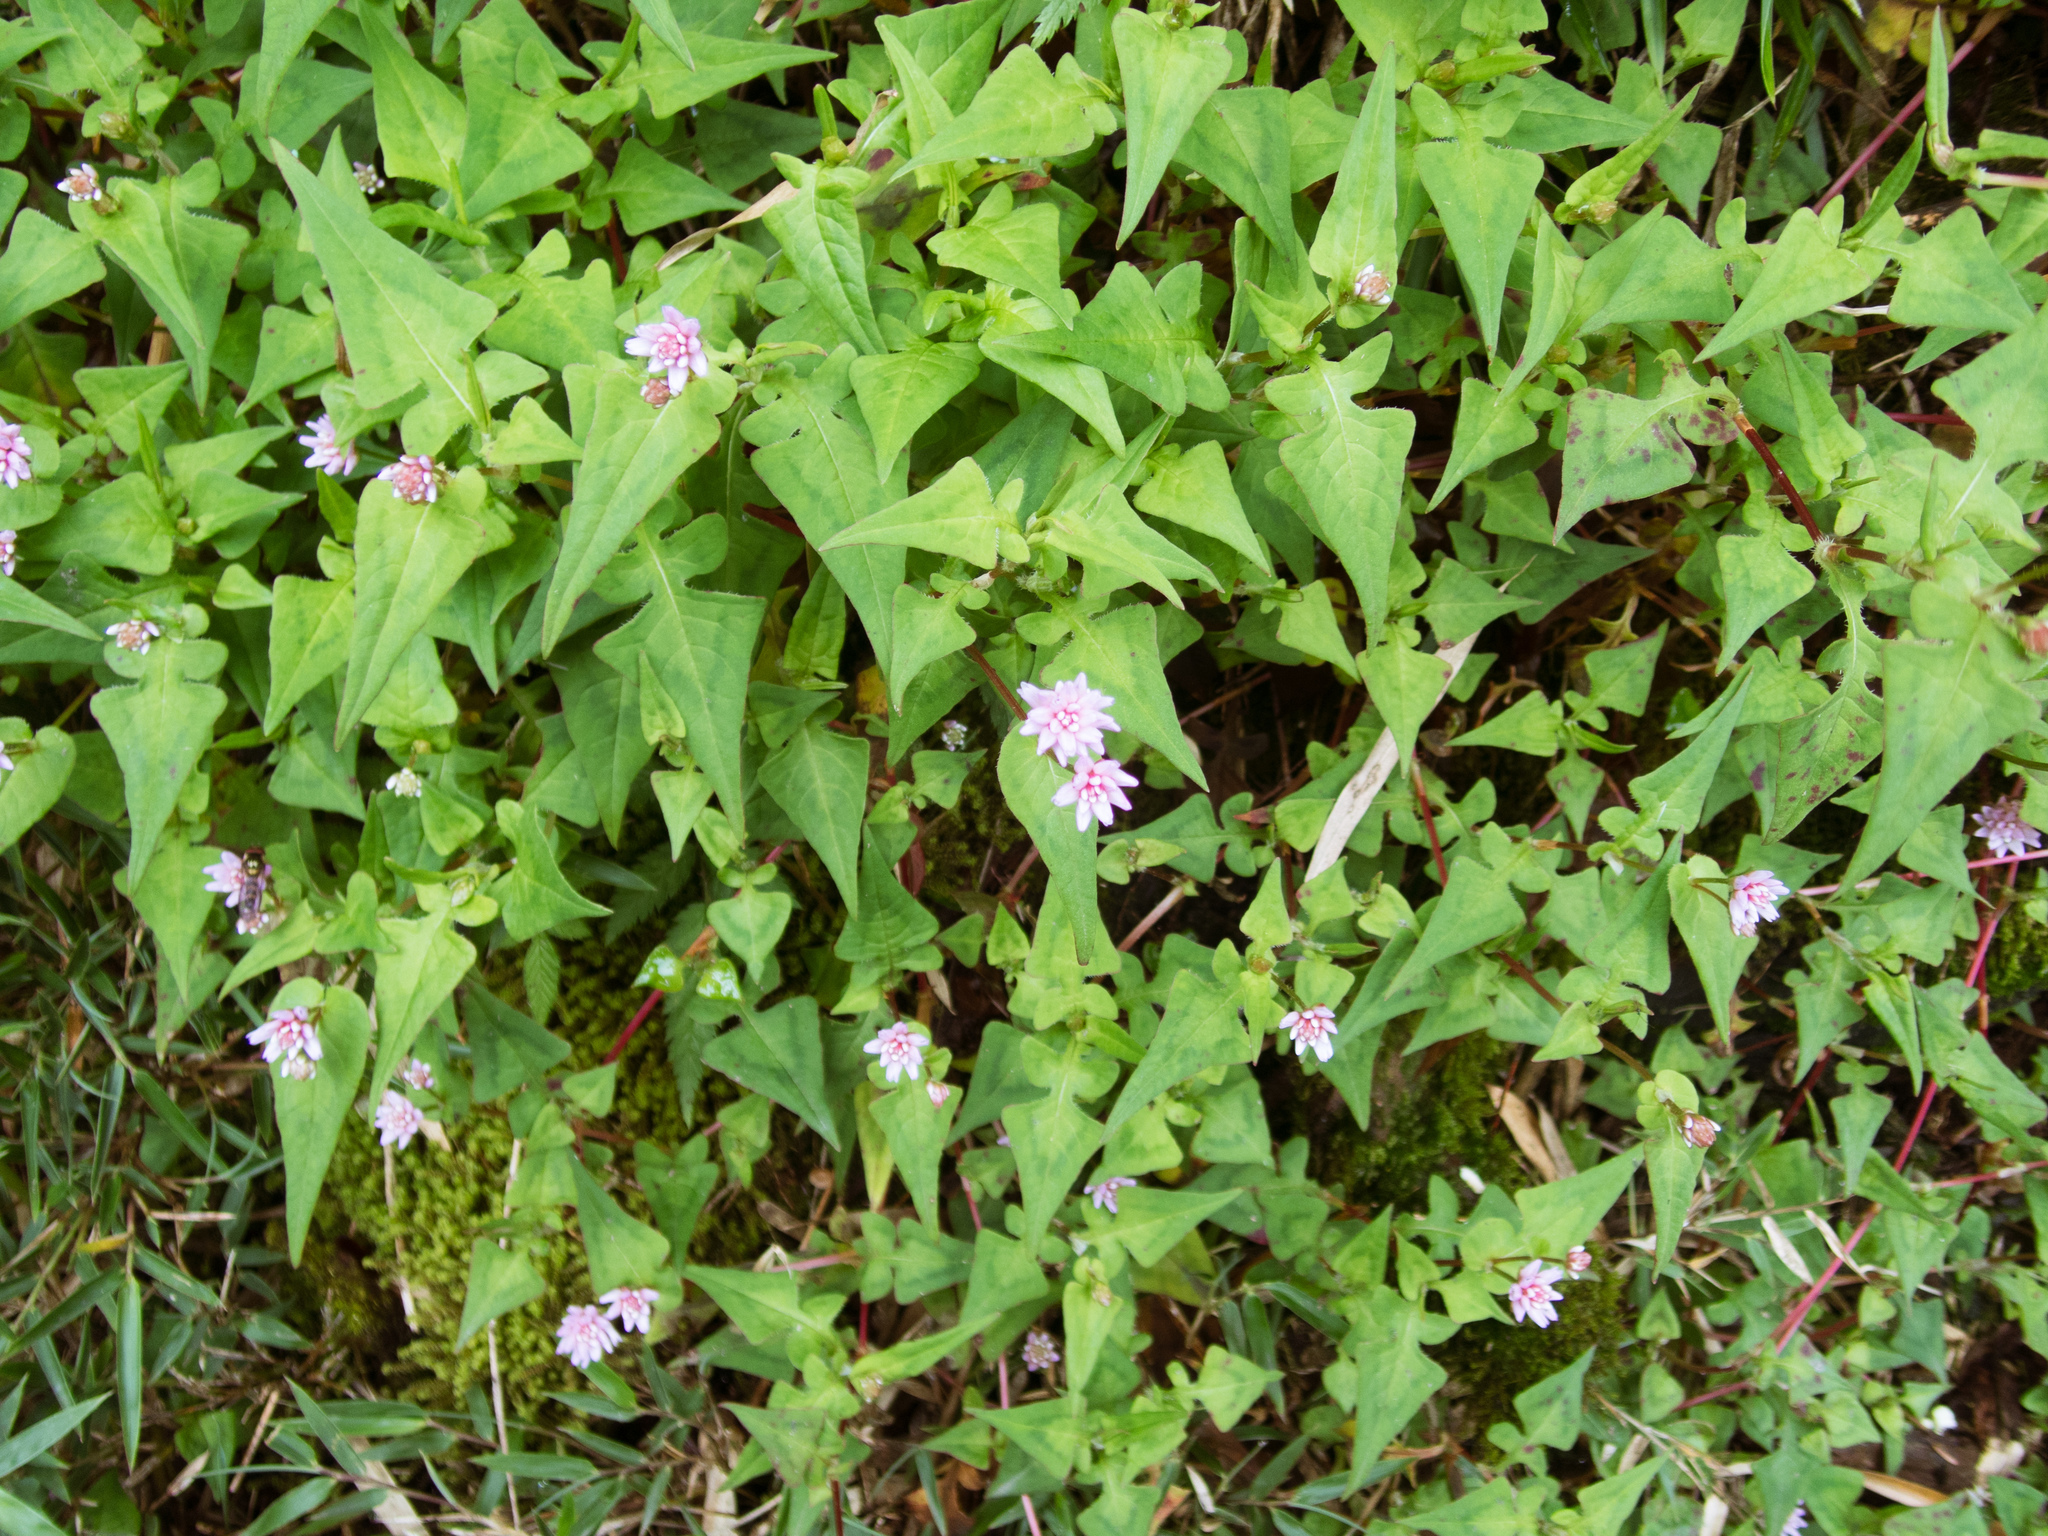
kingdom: Plantae
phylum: Tracheophyta
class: Magnoliopsida
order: Caryophyllales
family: Polygonaceae
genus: Persicaria
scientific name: Persicaria runcinata
